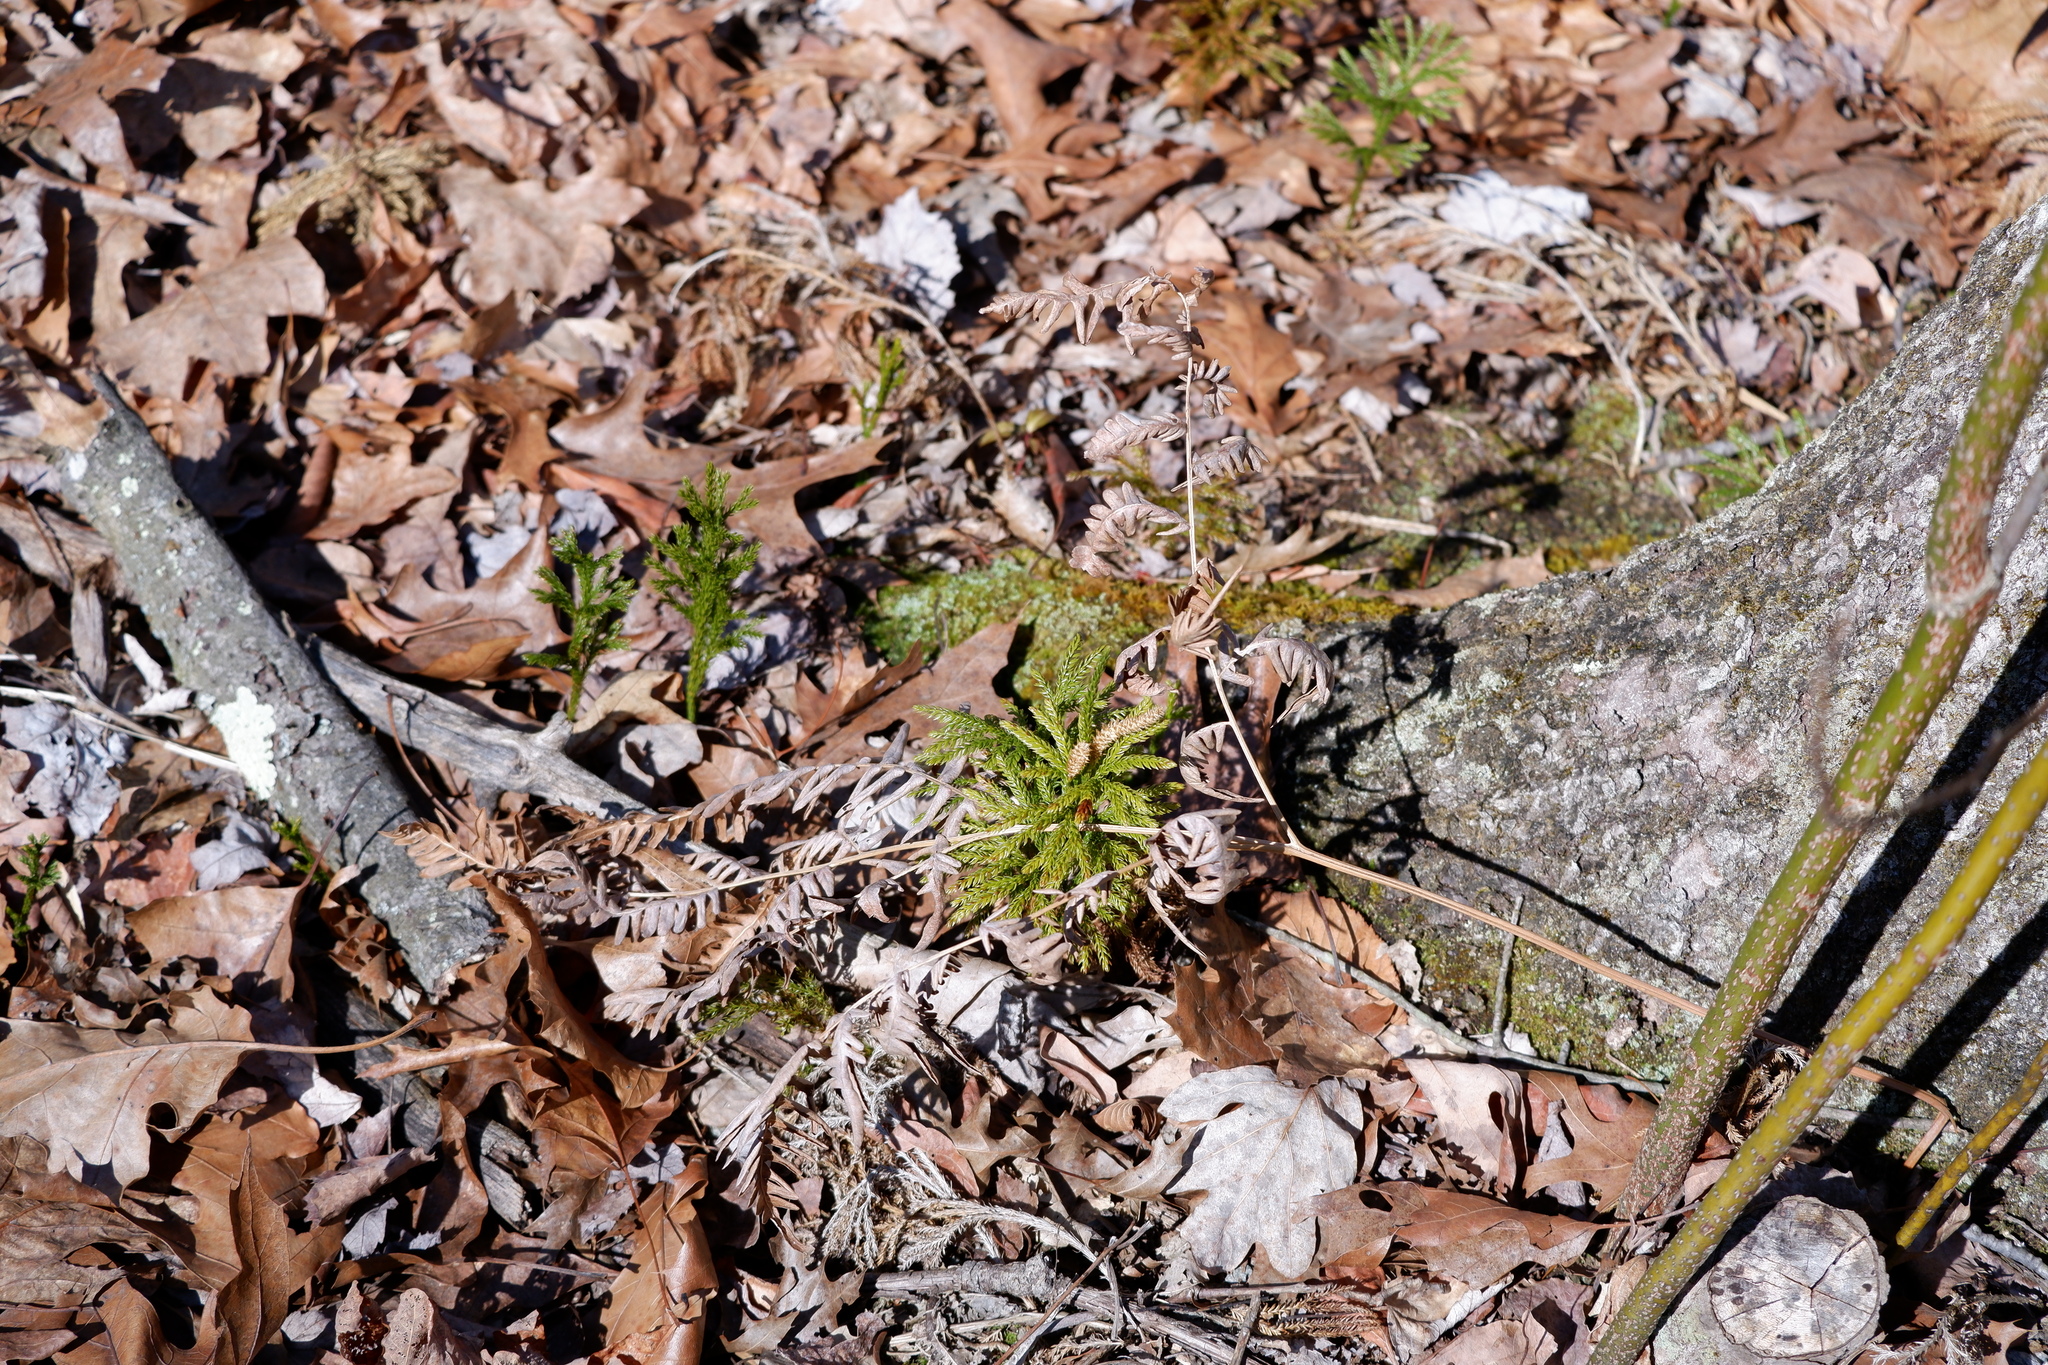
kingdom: Plantae
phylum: Tracheophyta
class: Polypodiopsida
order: Polypodiales
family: Dennstaedtiaceae
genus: Pteridium
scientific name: Pteridium aquilinum
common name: Bracken
